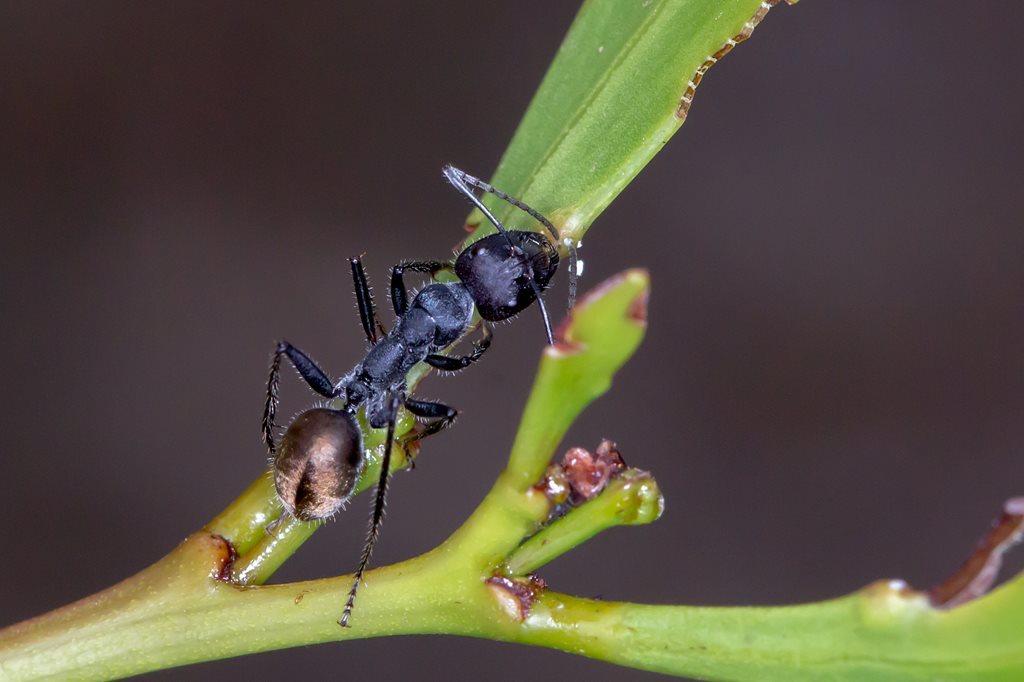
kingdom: Animalia
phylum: Arthropoda
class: Insecta
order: Hymenoptera
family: Formicidae
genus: Camponotus
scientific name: Camponotus suffusus
